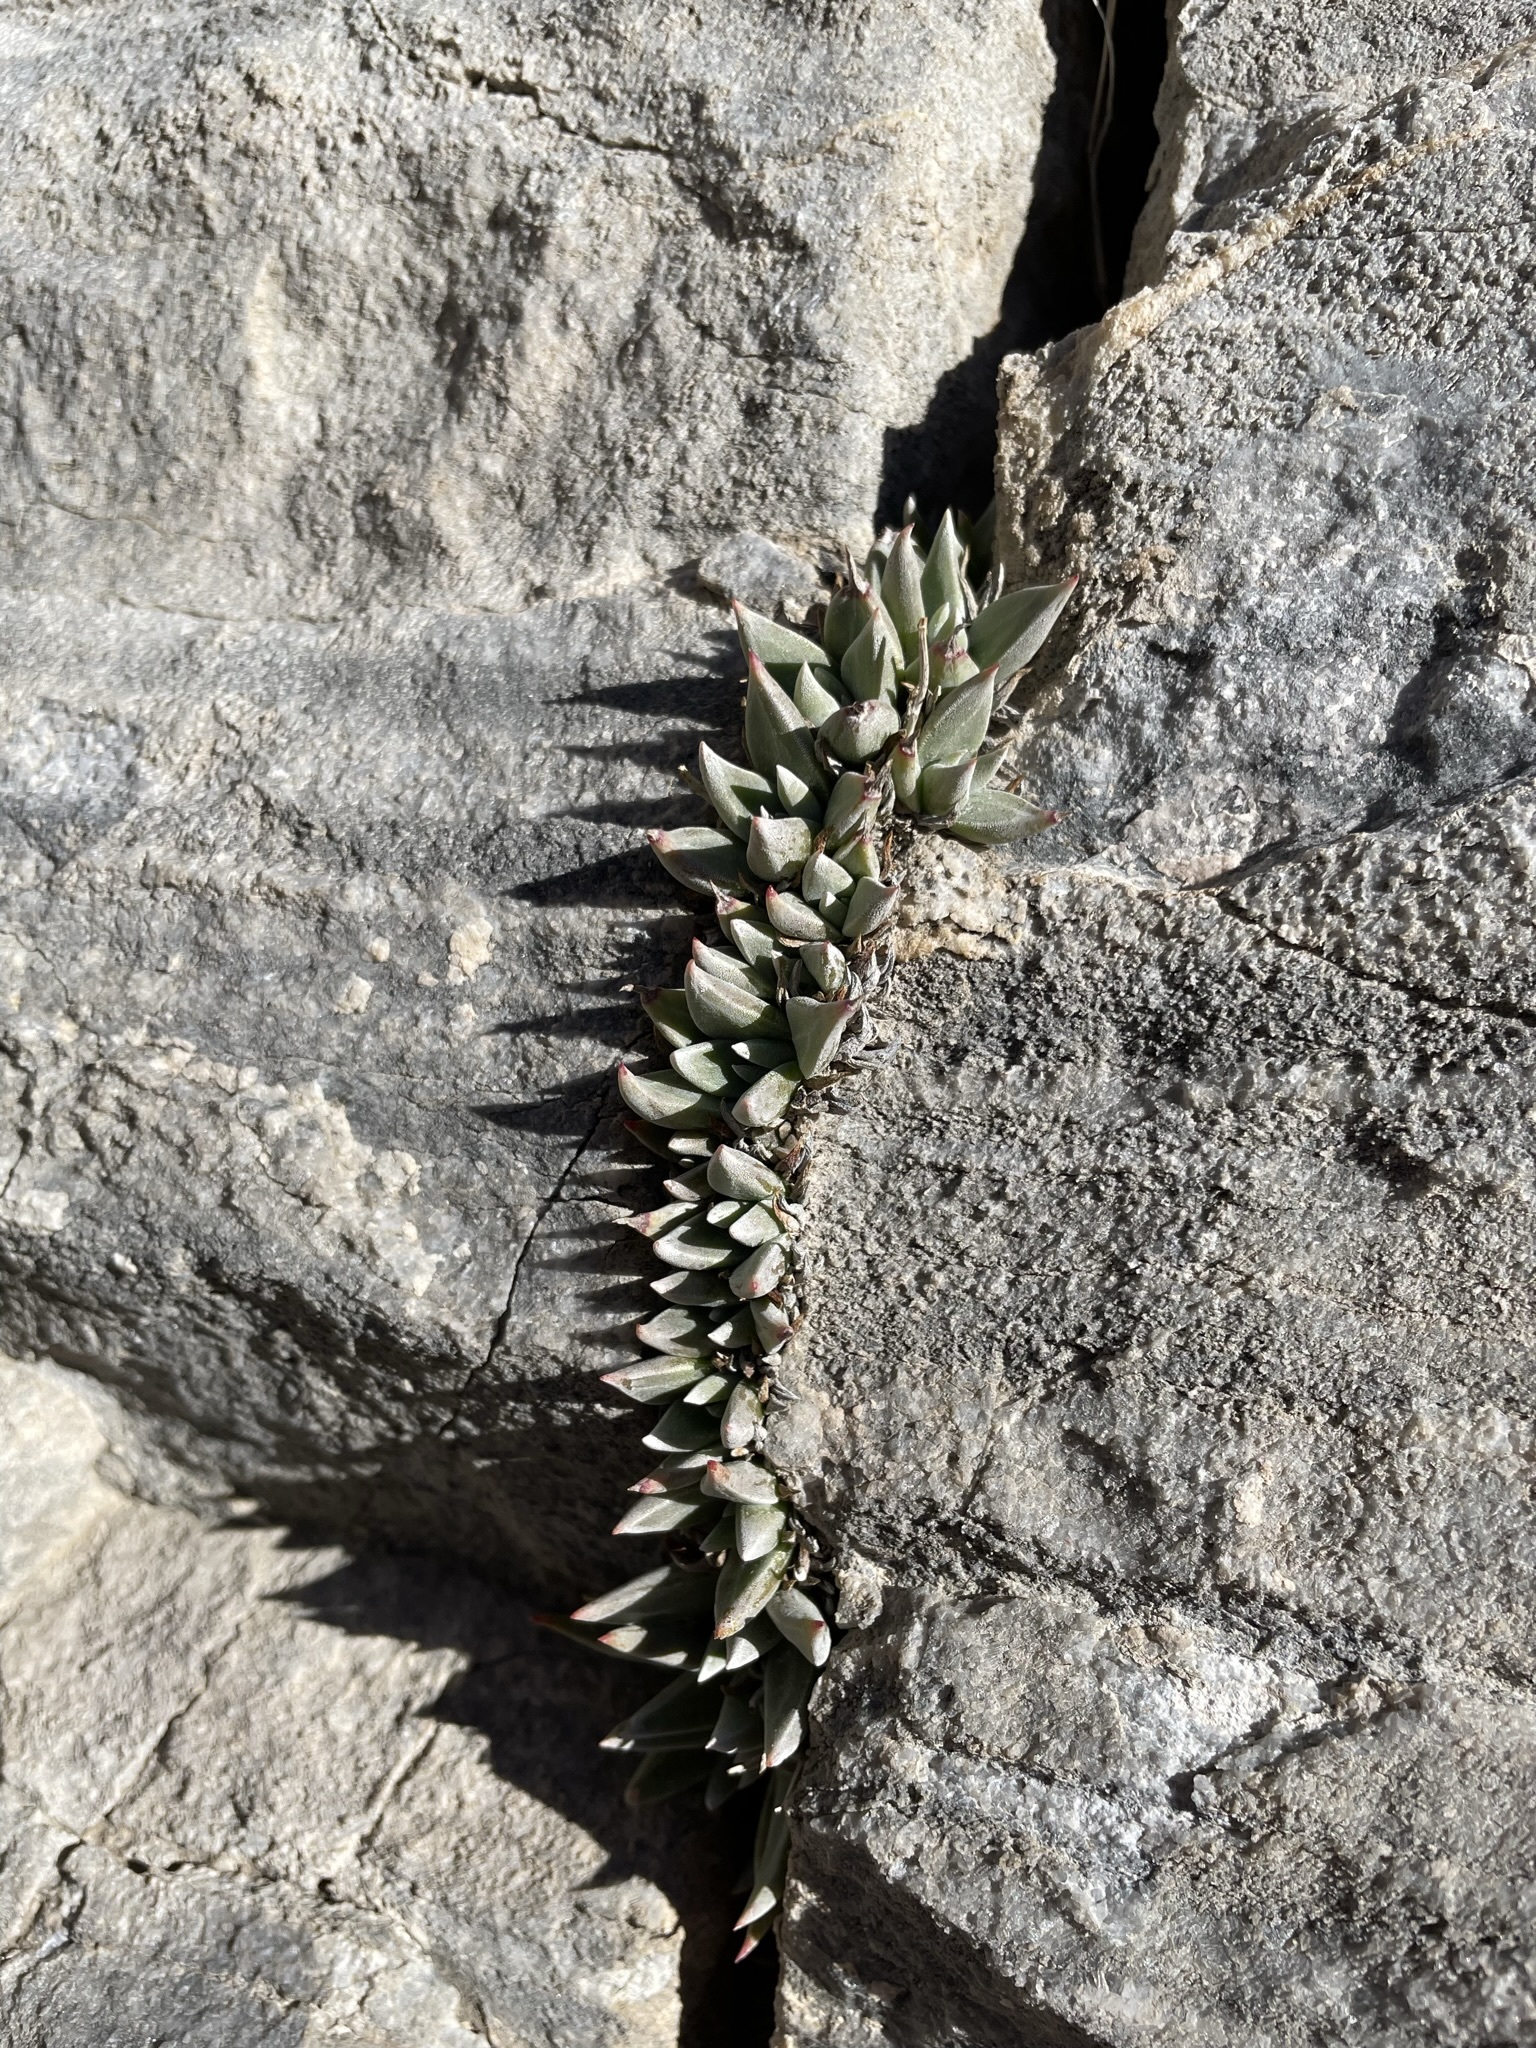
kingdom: Plantae
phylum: Tracheophyta
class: Magnoliopsida
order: Saxifragales
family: Crassulaceae
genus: Dudleya
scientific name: Dudleya abramsii
